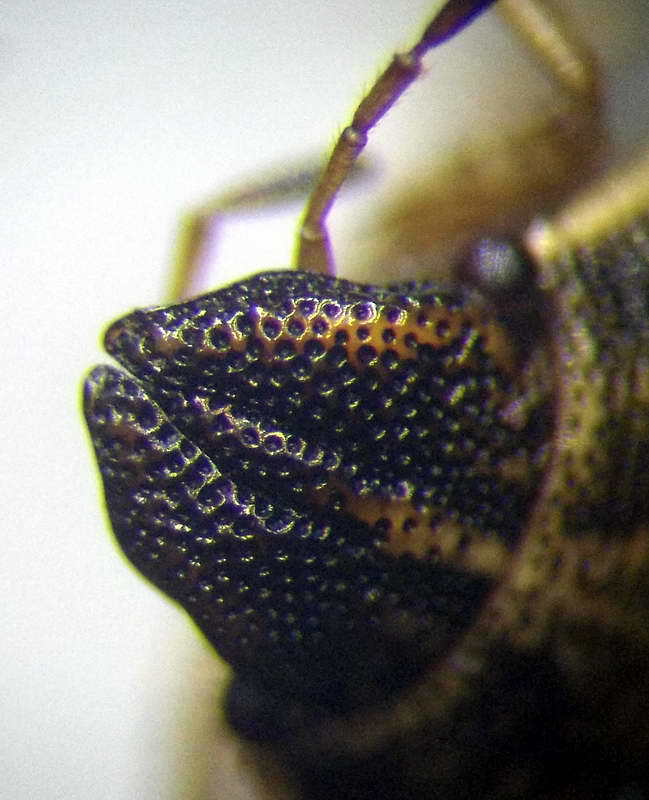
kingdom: Animalia
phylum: Arthropoda
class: Insecta
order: Hemiptera
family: Pentatomidae
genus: Neottiglossa
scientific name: Neottiglossa pusilla
